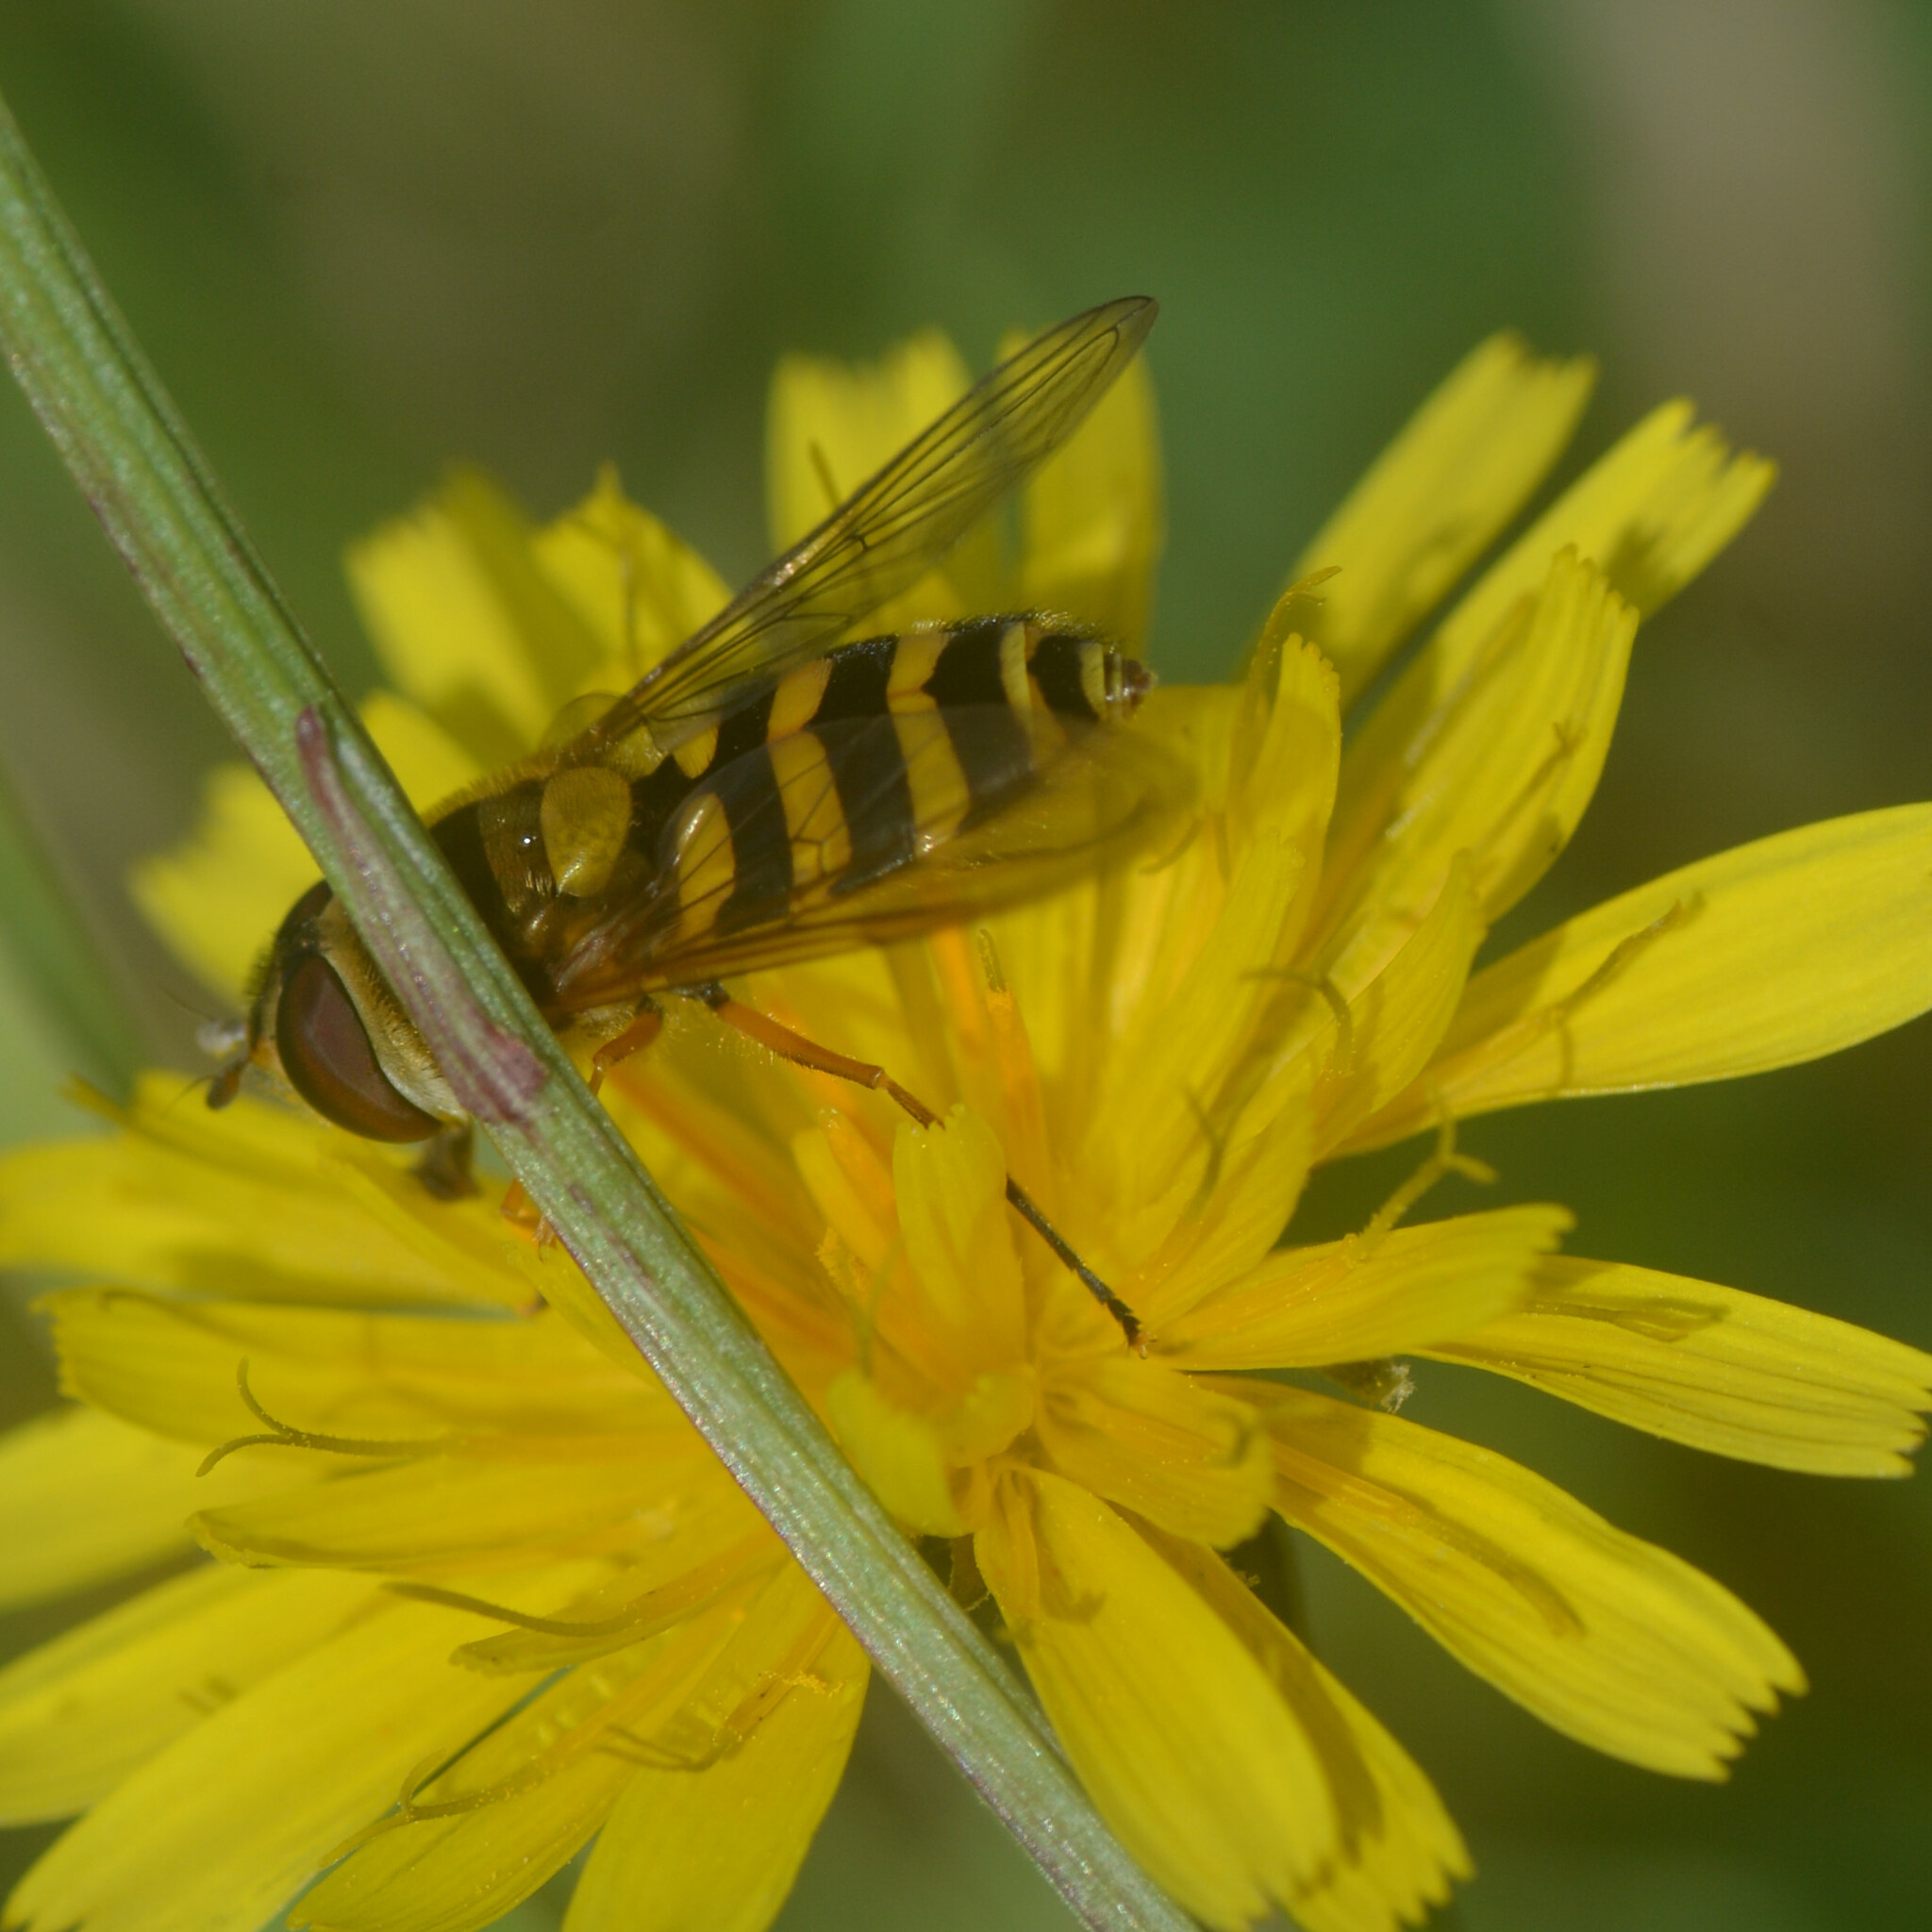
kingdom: Animalia
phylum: Arthropoda
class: Insecta
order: Diptera
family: Syrphidae
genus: Syrphus
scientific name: Syrphus ribesii
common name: Common flower fly
